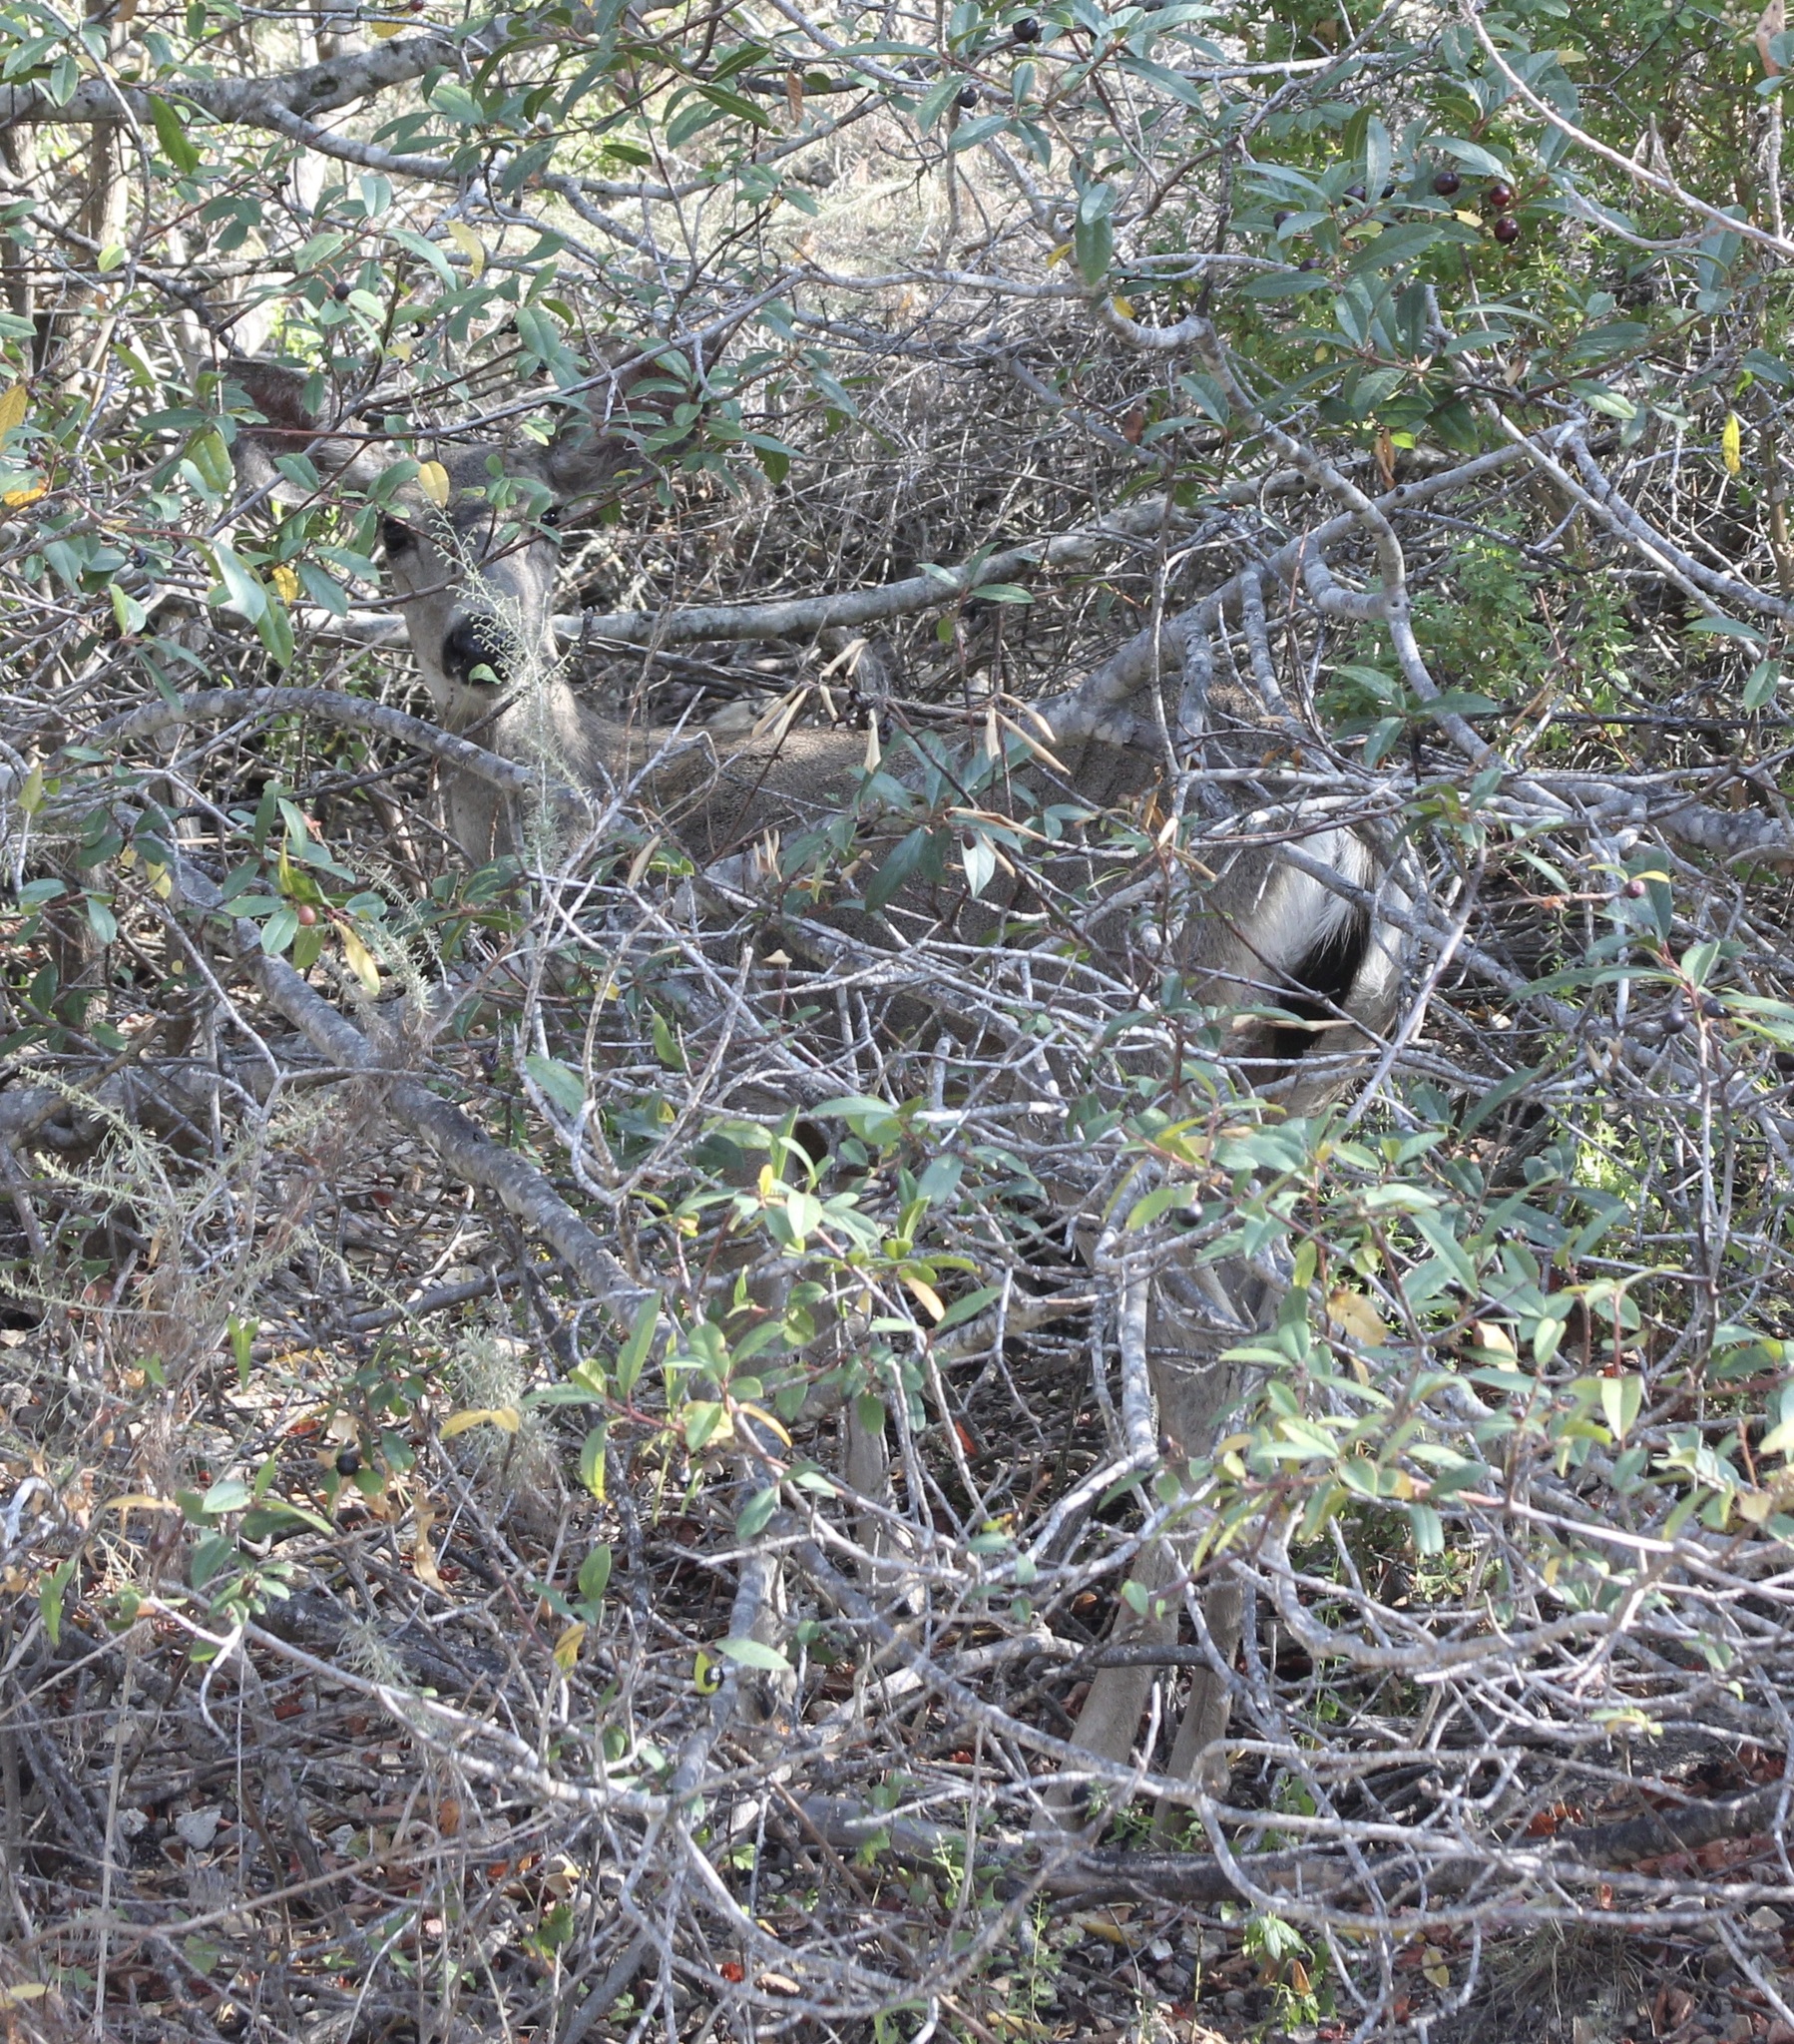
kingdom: Animalia
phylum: Chordata
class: Mammalia
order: Artiodactyla
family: Cervidae
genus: Odocoileus
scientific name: Odocoileus hemionus
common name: Mule deer
